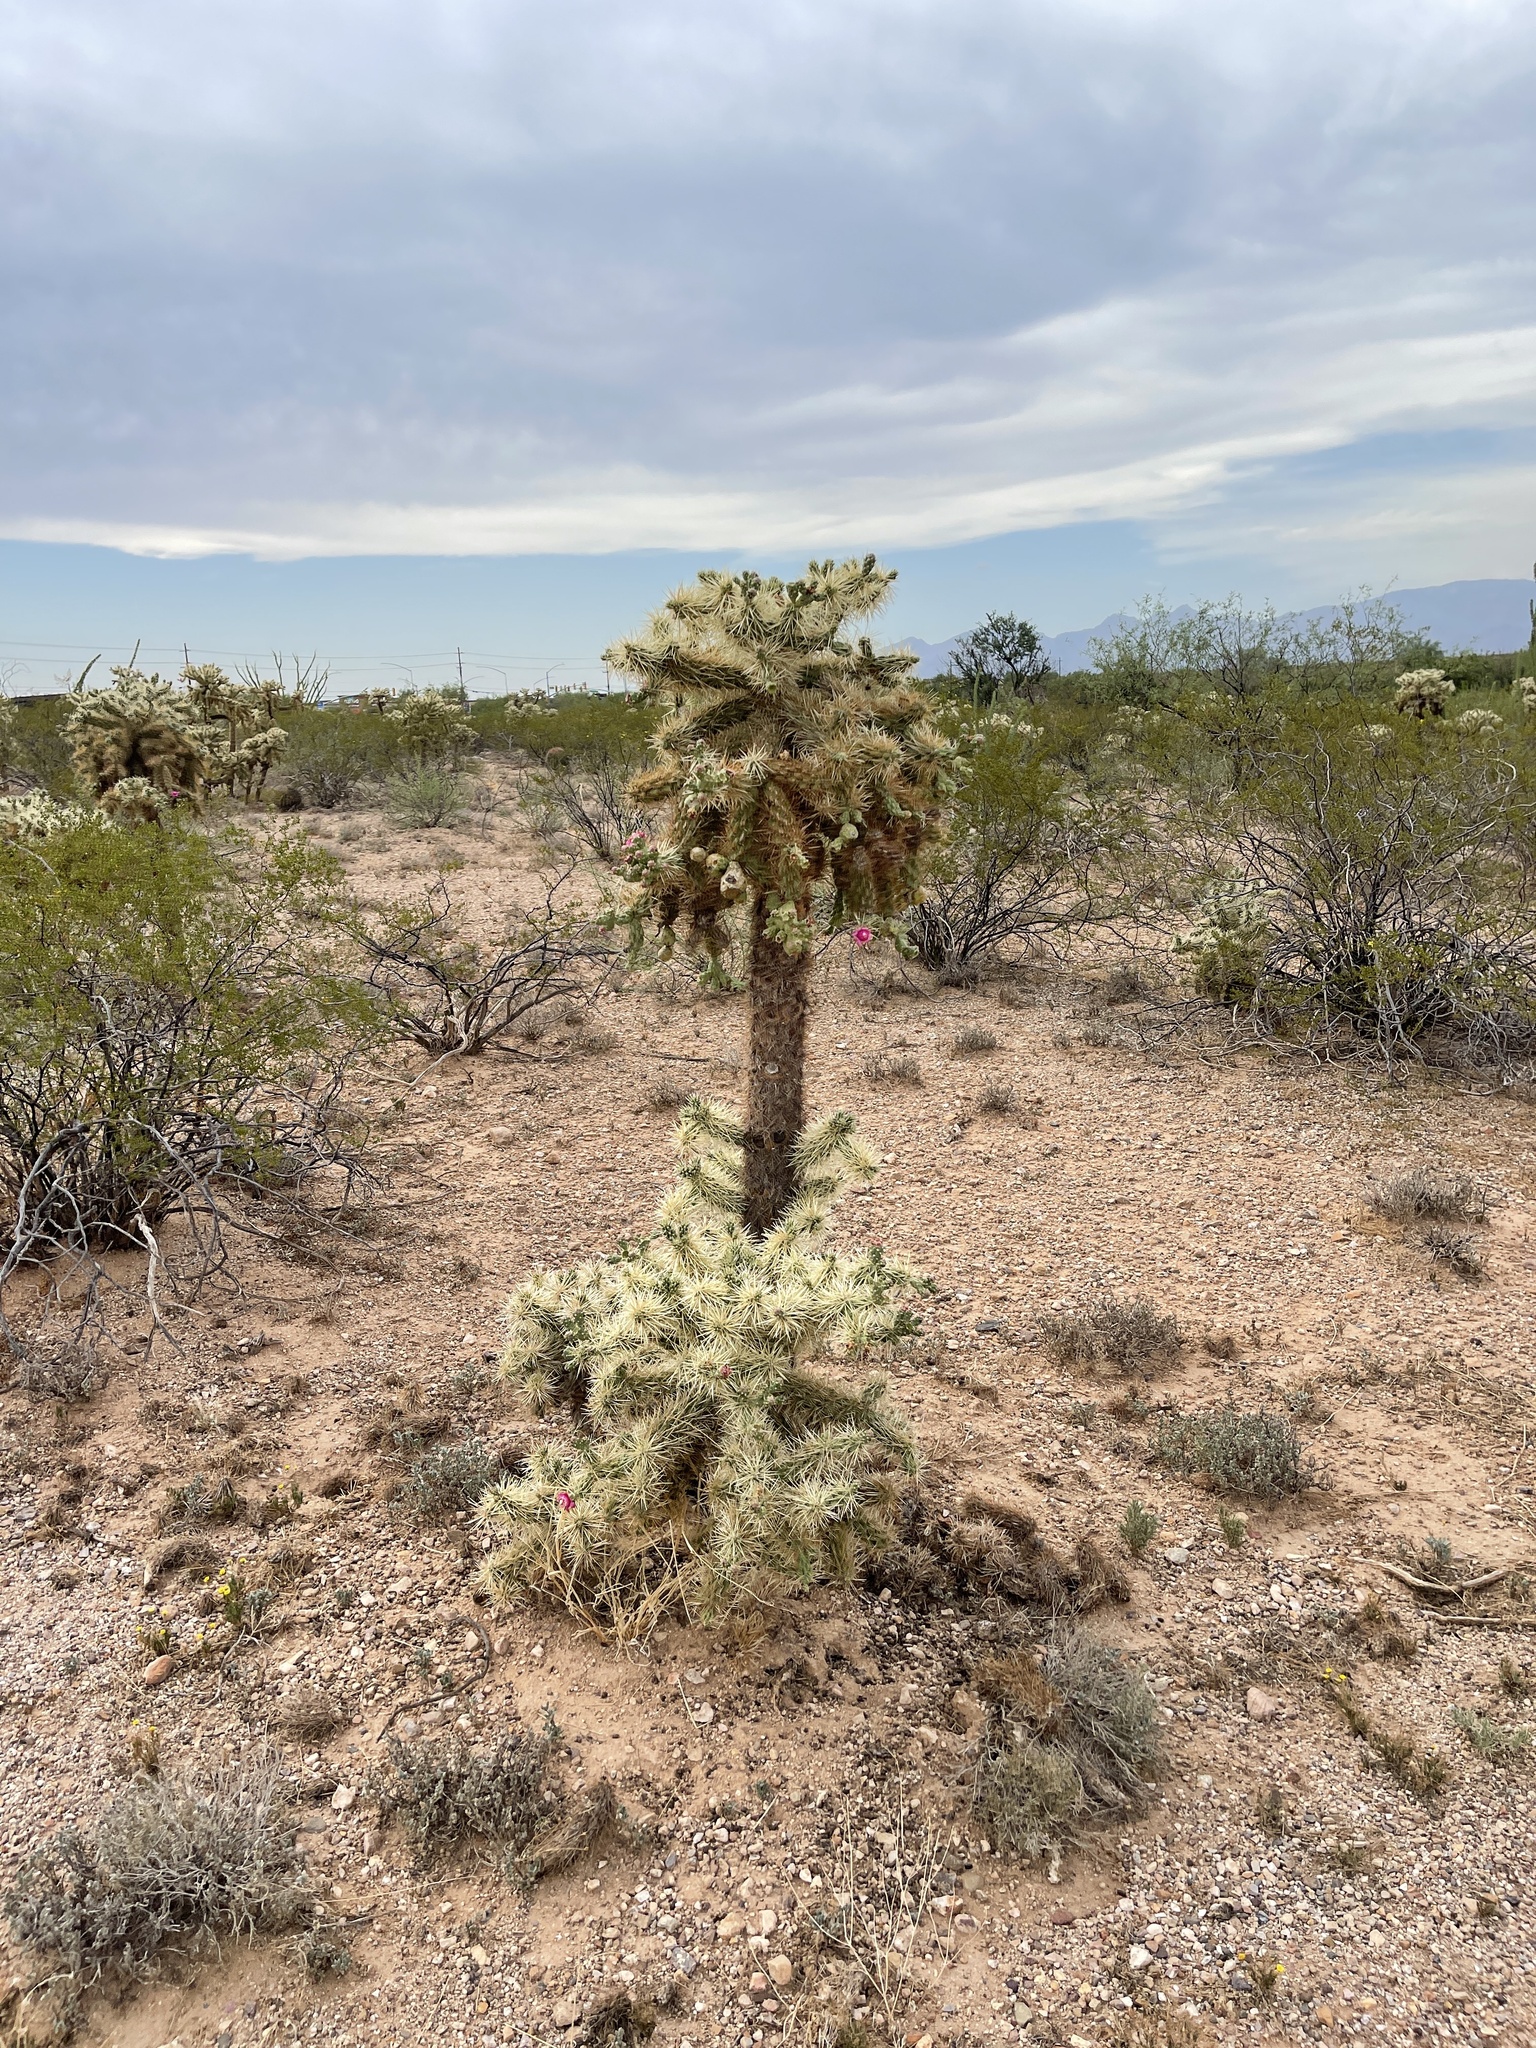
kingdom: Plantae
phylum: Tracheophyta
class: Magnoliopsida
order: Caryophyllales
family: Cactaceae
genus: Cylindropuntia
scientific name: Cylindropuntia fulgida
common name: Jumping cholla
